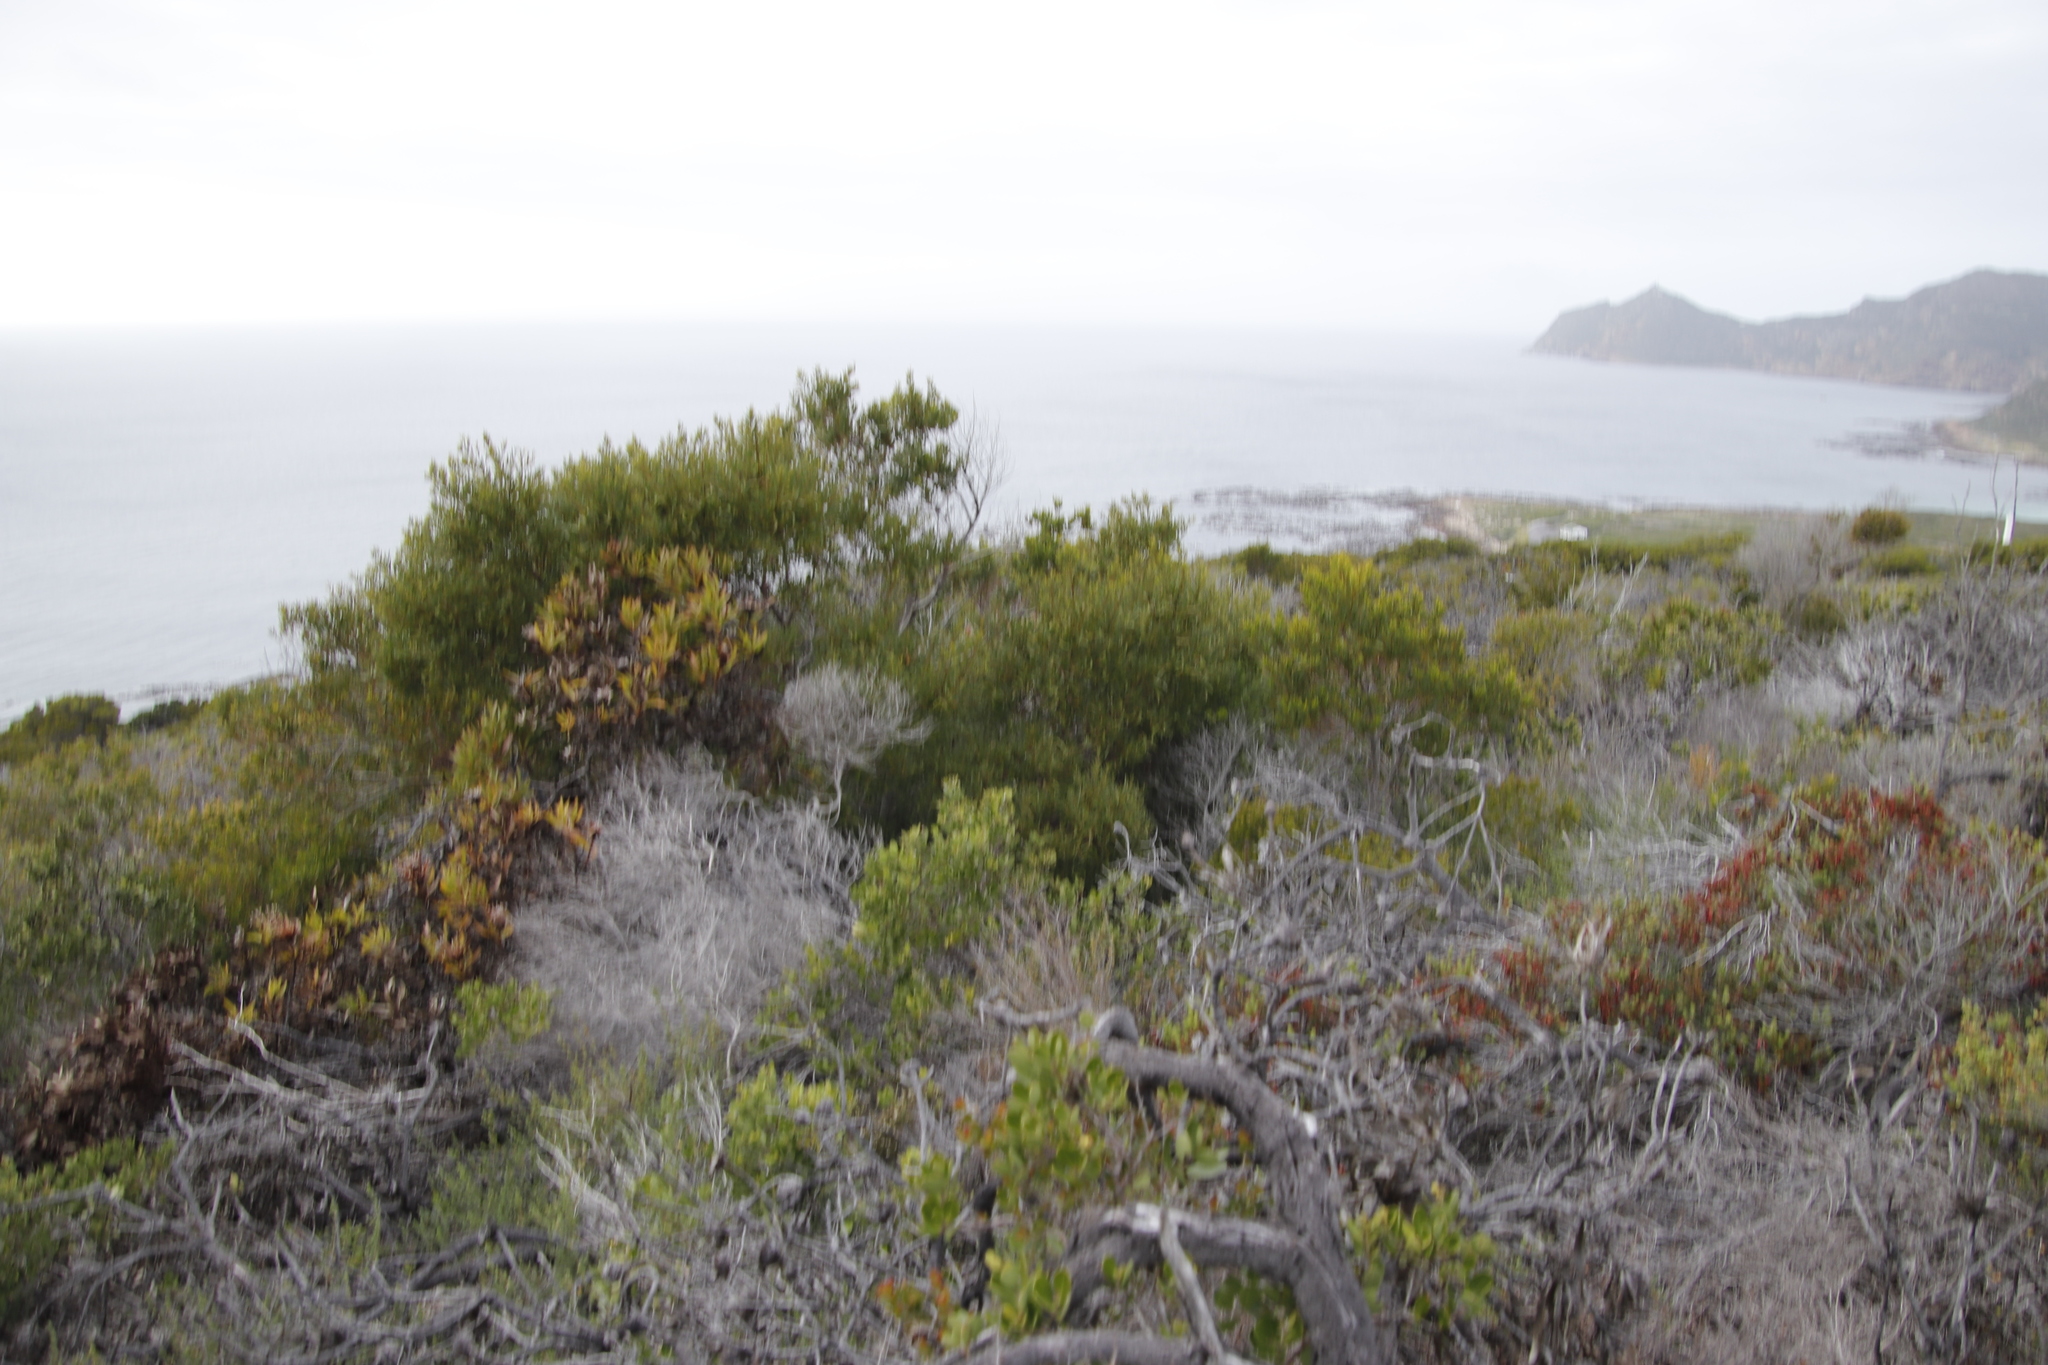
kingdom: Plantae
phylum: Tracheophyta
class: Magnoliopsida
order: Fabales
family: Fabaceae
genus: Acacia
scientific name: Acacia cyclops
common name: Coastal wattle
